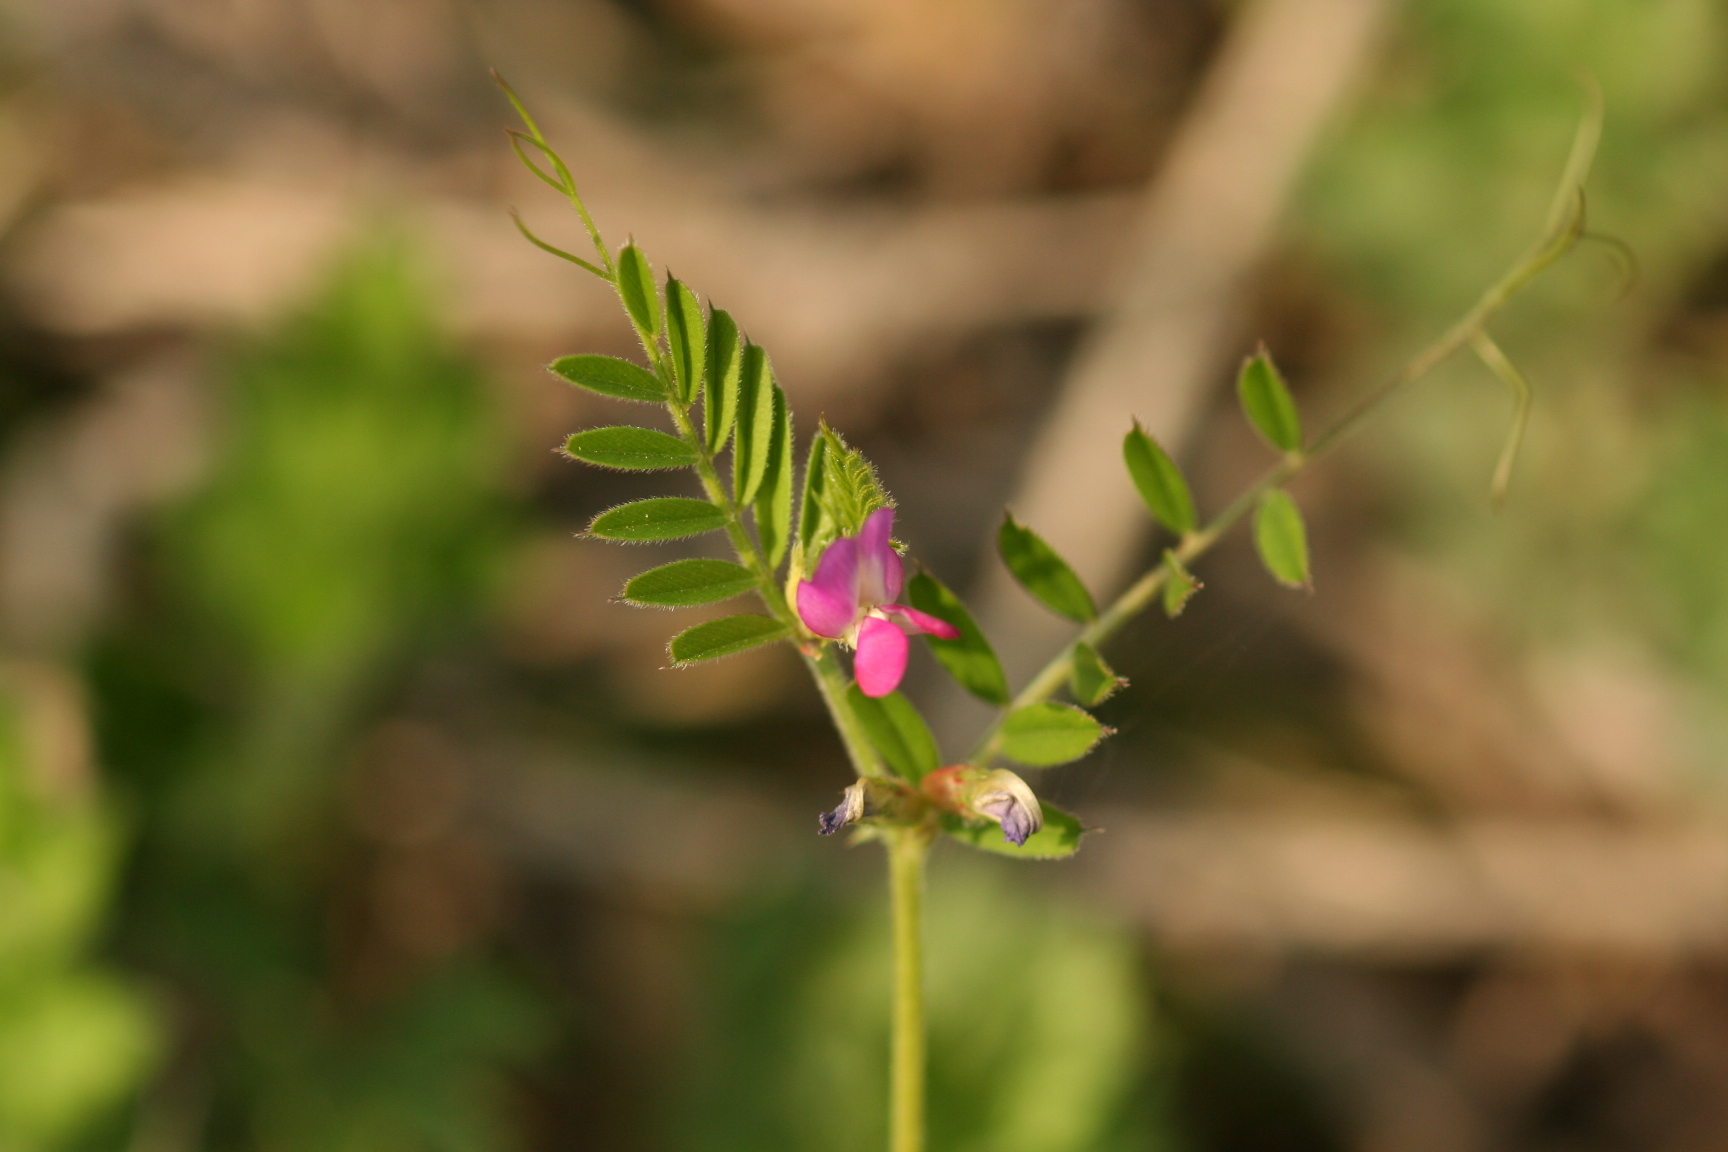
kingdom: Plantae
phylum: Tracheophyta
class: Magnoliopsida
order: Fabales
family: Fabaceae
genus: Vicia
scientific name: Vicia sativa
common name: Garden vetch
